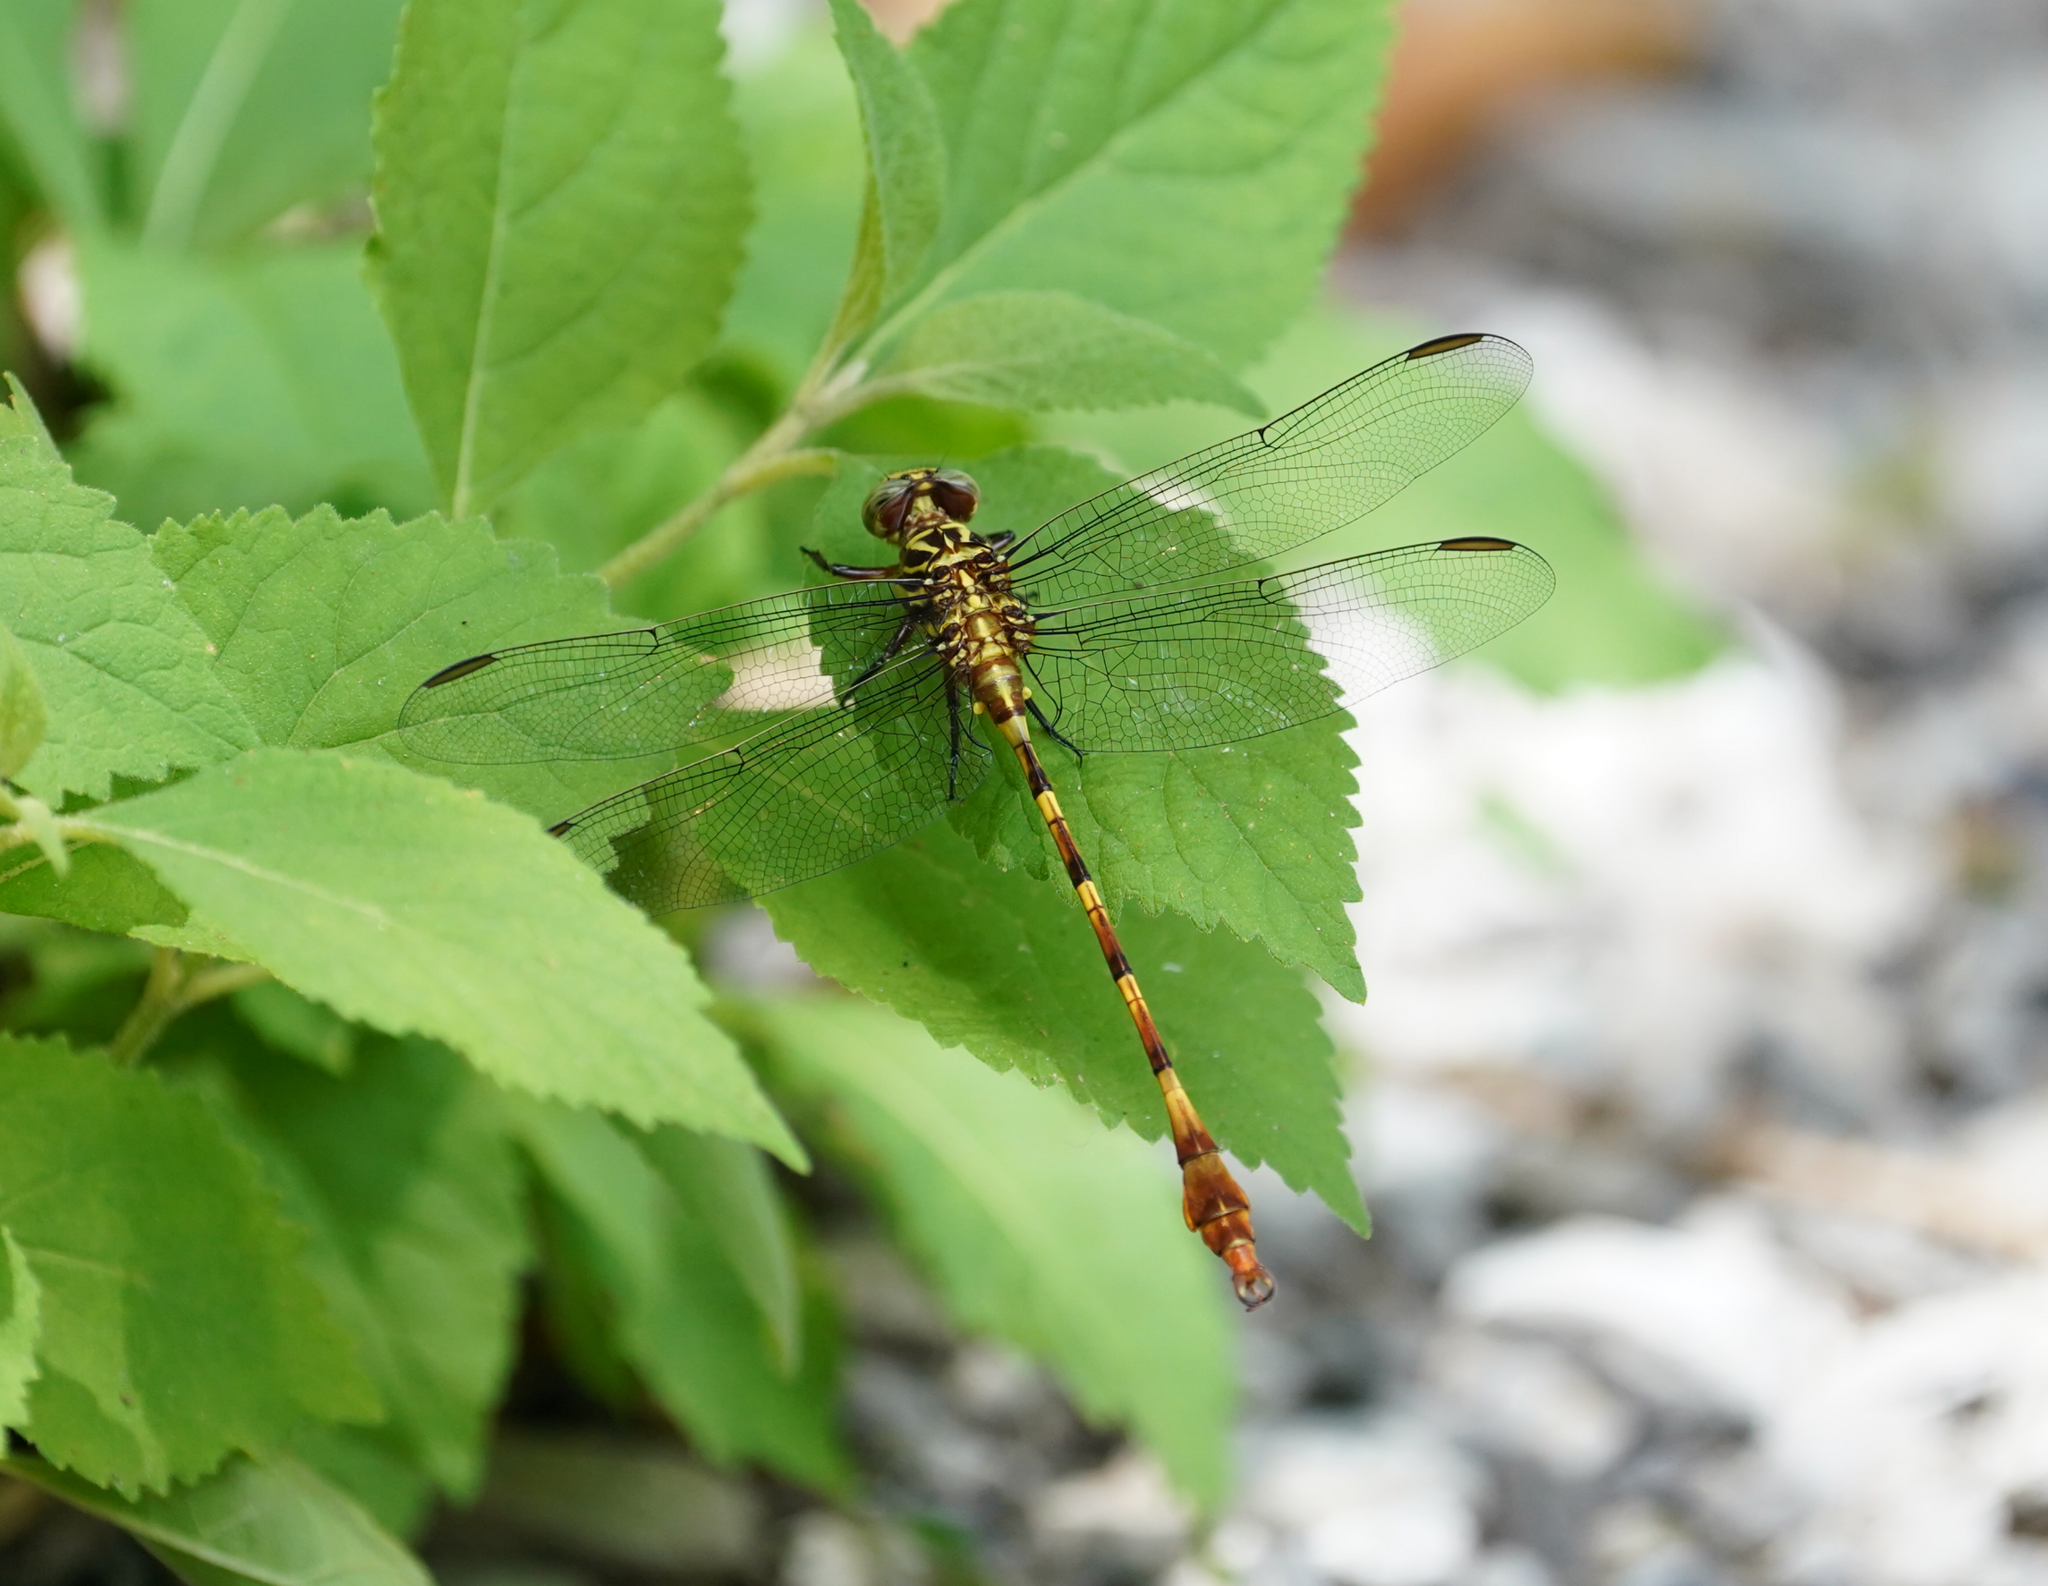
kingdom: Animalia
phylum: Arthropoda
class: Insecta
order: Odonata
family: Gomphidae
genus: Aphylla
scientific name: Aphylla angustifolia
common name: Broad-striped forceptail
